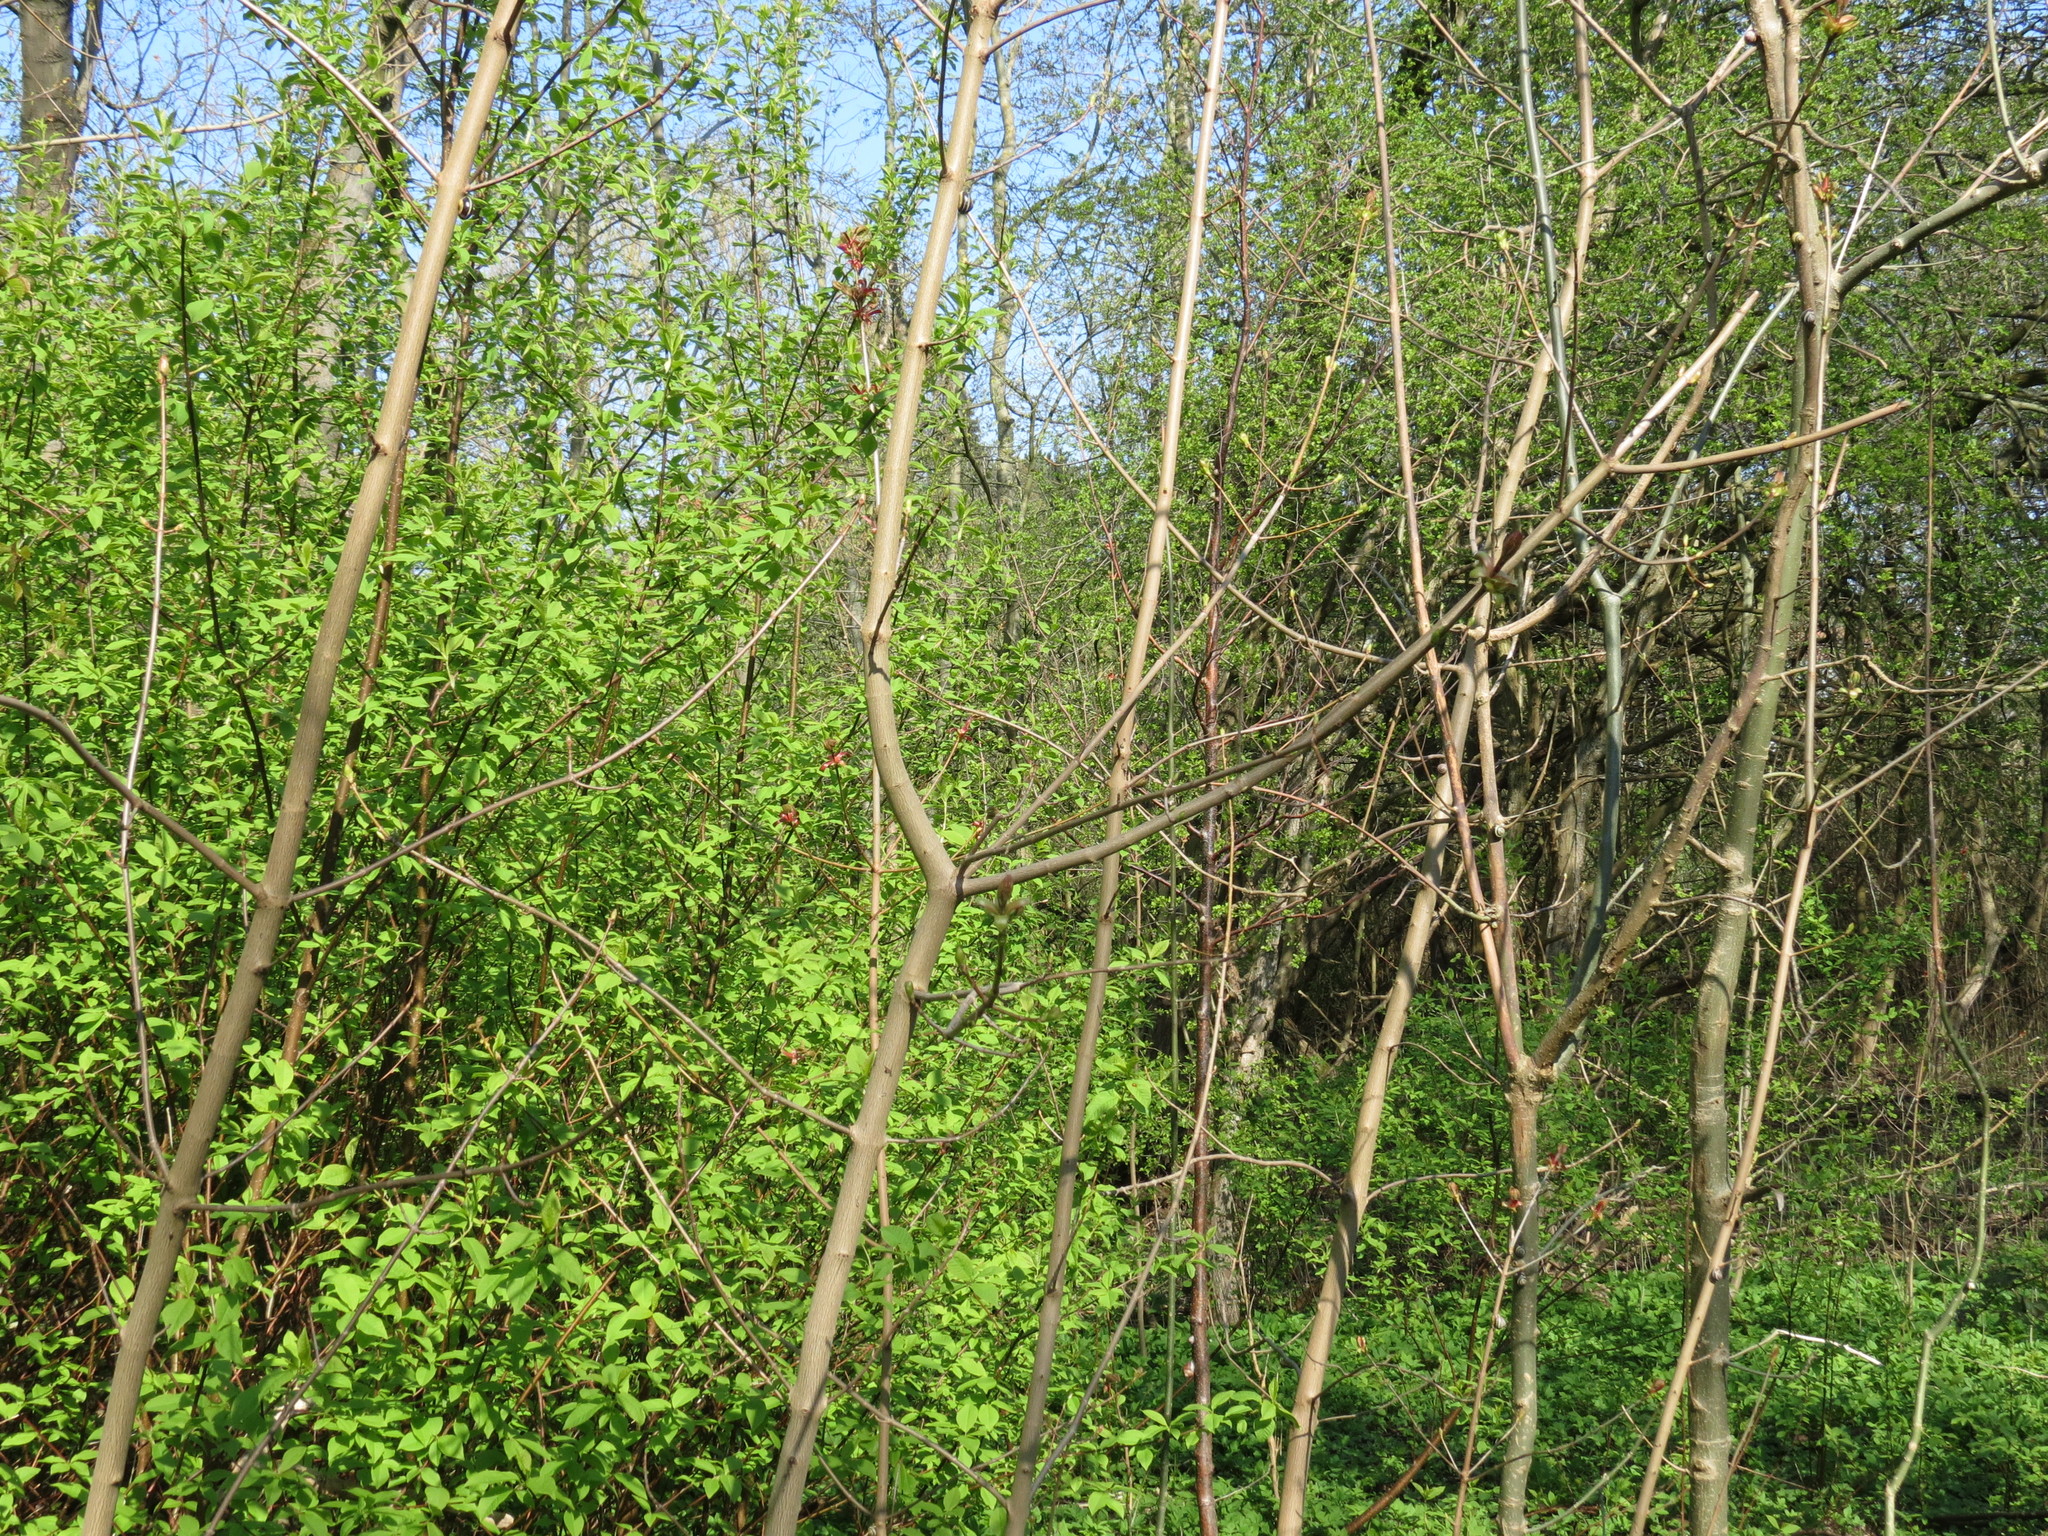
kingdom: Plantae
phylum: Tracheophyta
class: Magnoliopsida
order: Sapindales
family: Sapindaceae
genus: Acer
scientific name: Acer platanoides
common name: Norway maple
